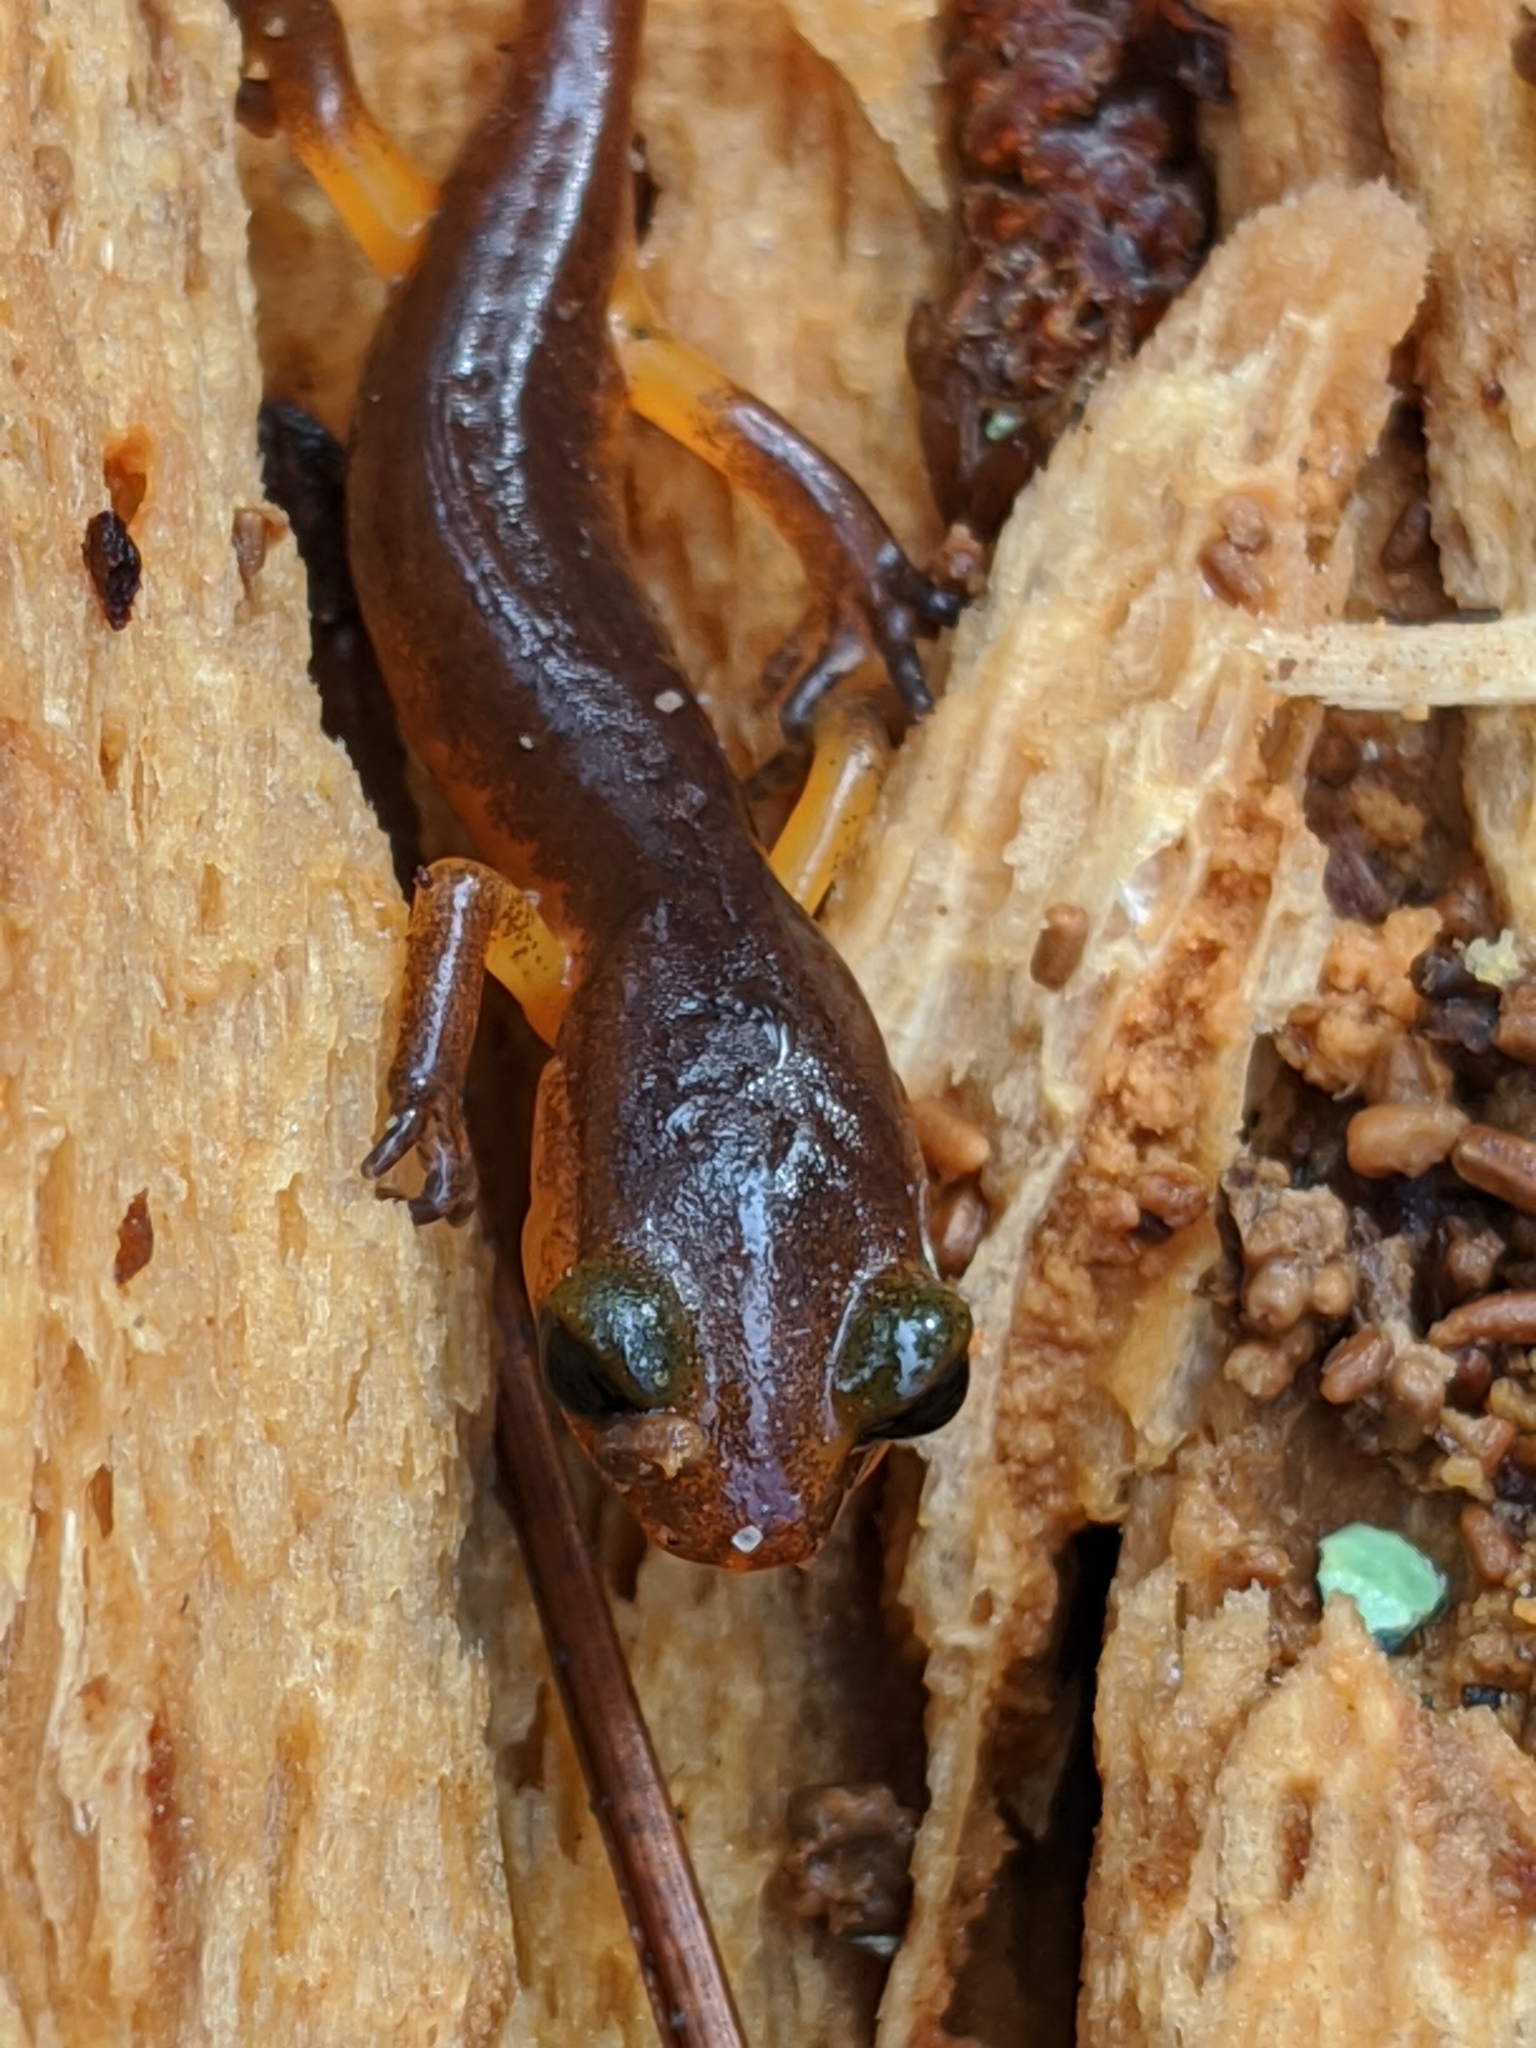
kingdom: Animalia
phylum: Chordata
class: Amphibia
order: Caudata
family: Plethodontidae
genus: Ensatina
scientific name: Ensatina eschscholtzii
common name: Ensatina
